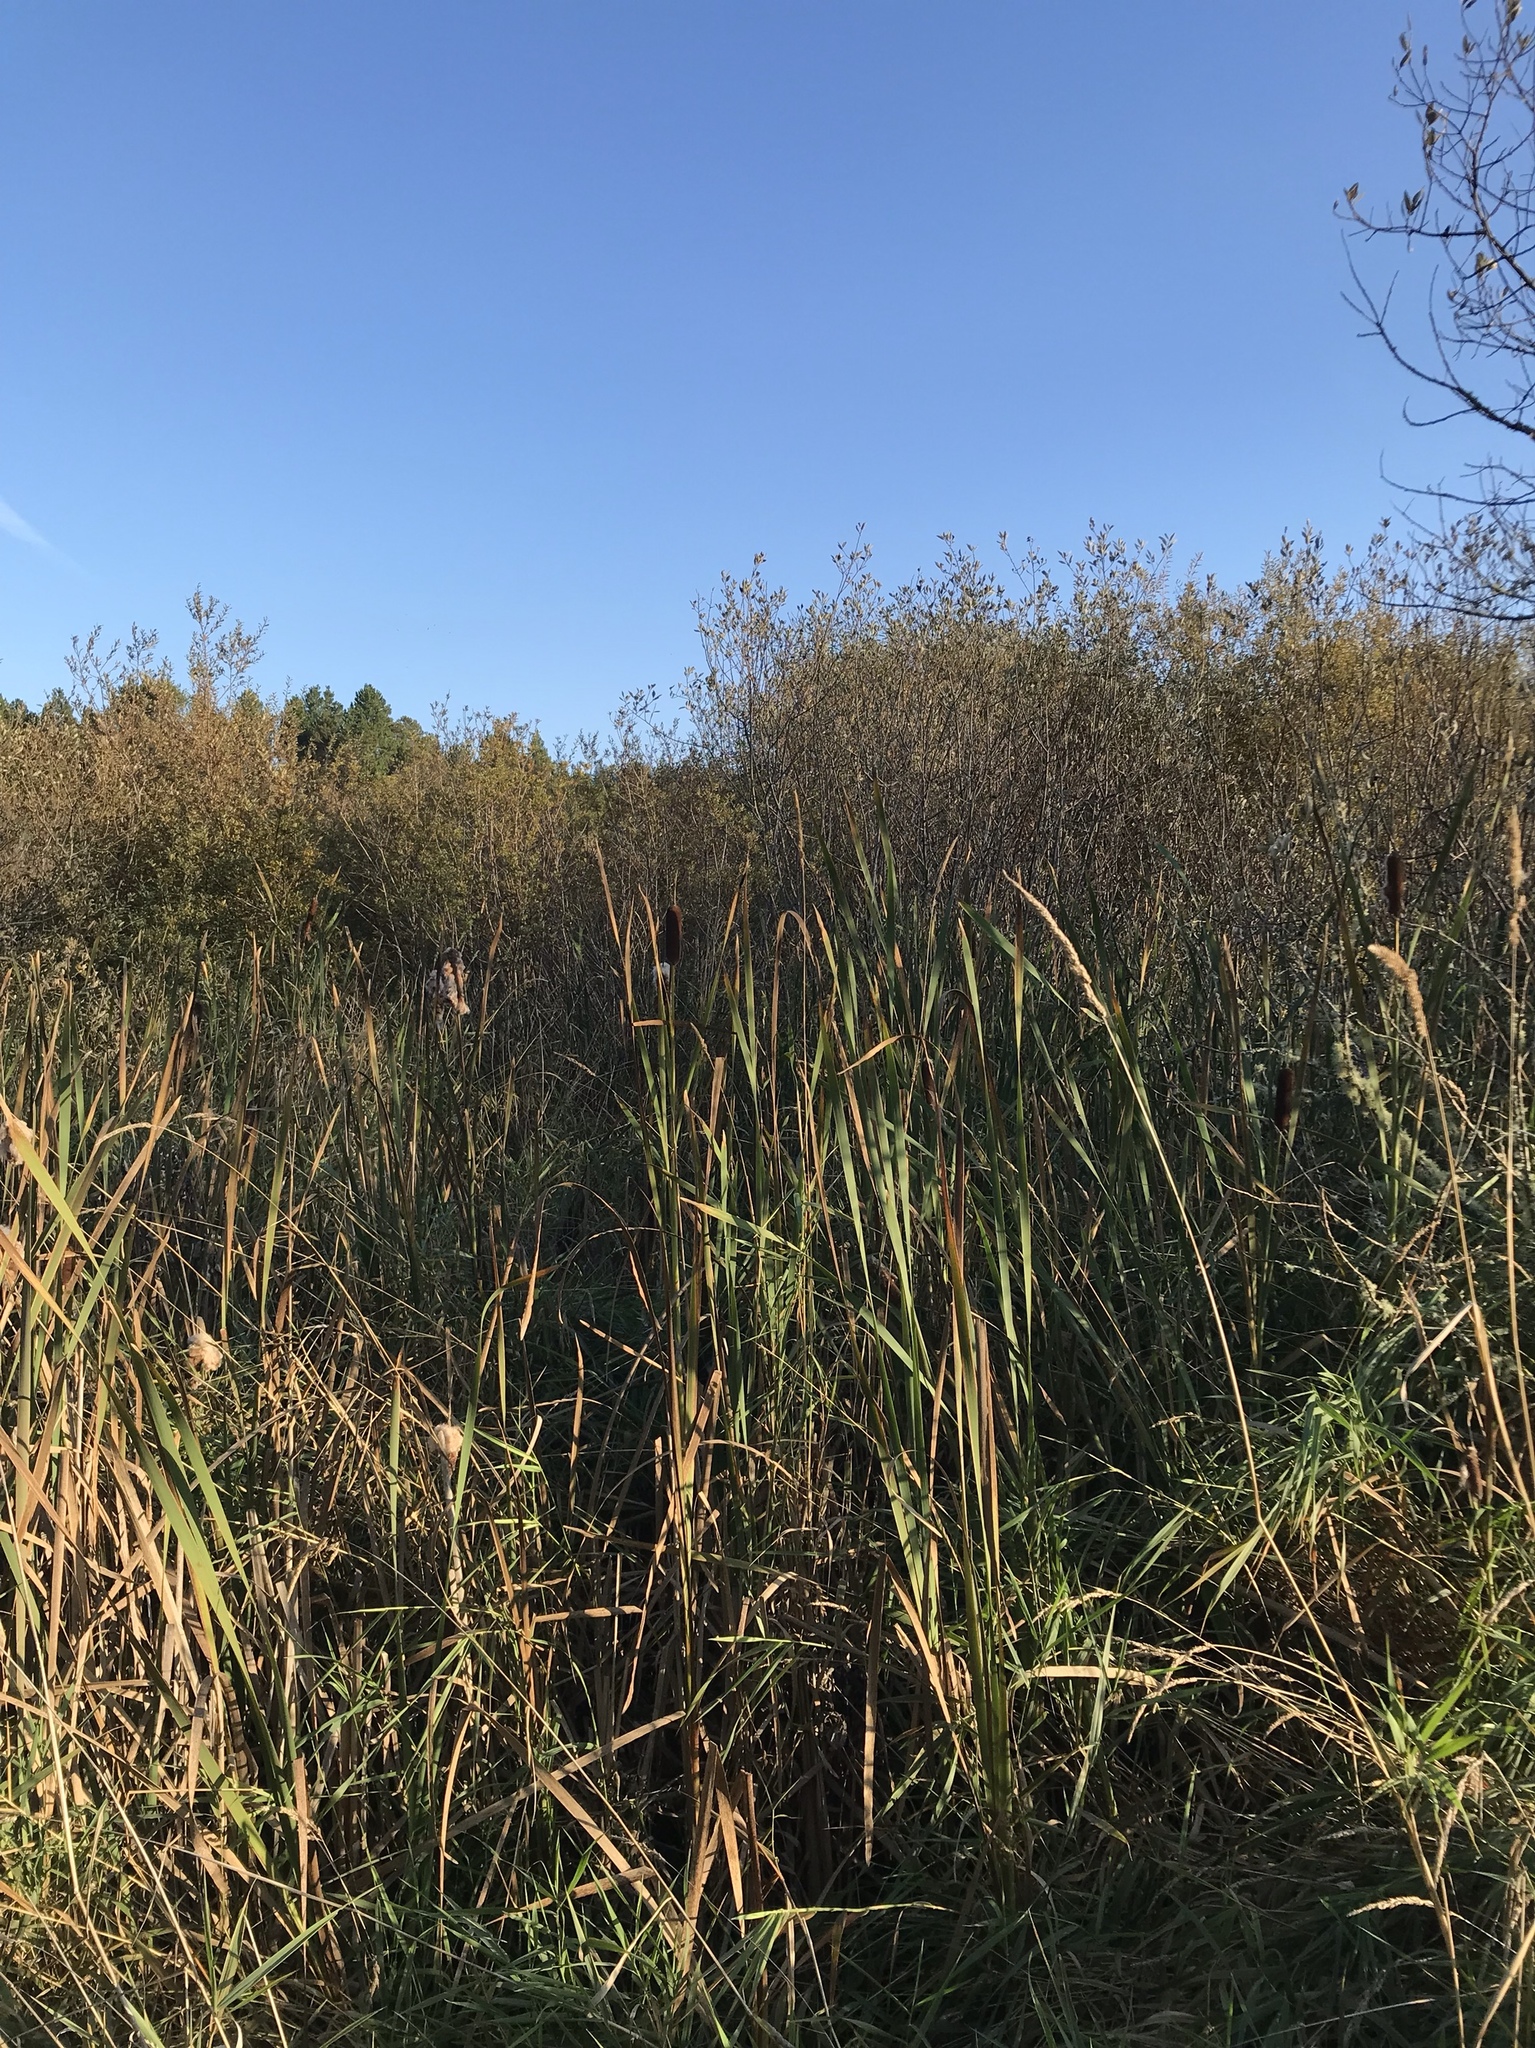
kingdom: Plantae
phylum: Tracheophyta
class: Liliopsida
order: Poales
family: Typhaceae
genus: Typha
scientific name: Typha latifolia
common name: Broadleaf cattail
